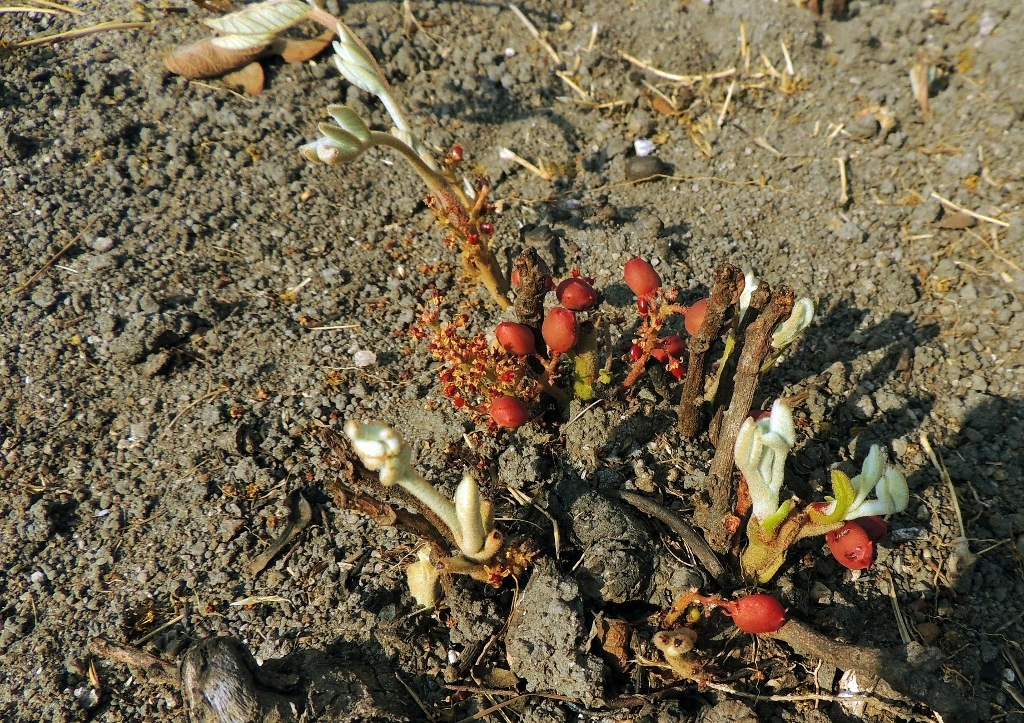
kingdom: Plantae
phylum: Tracheophyta
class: Magnoliopsida
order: Sapindales
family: Anacardiaceae
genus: Lannea
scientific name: Lannea edulis
